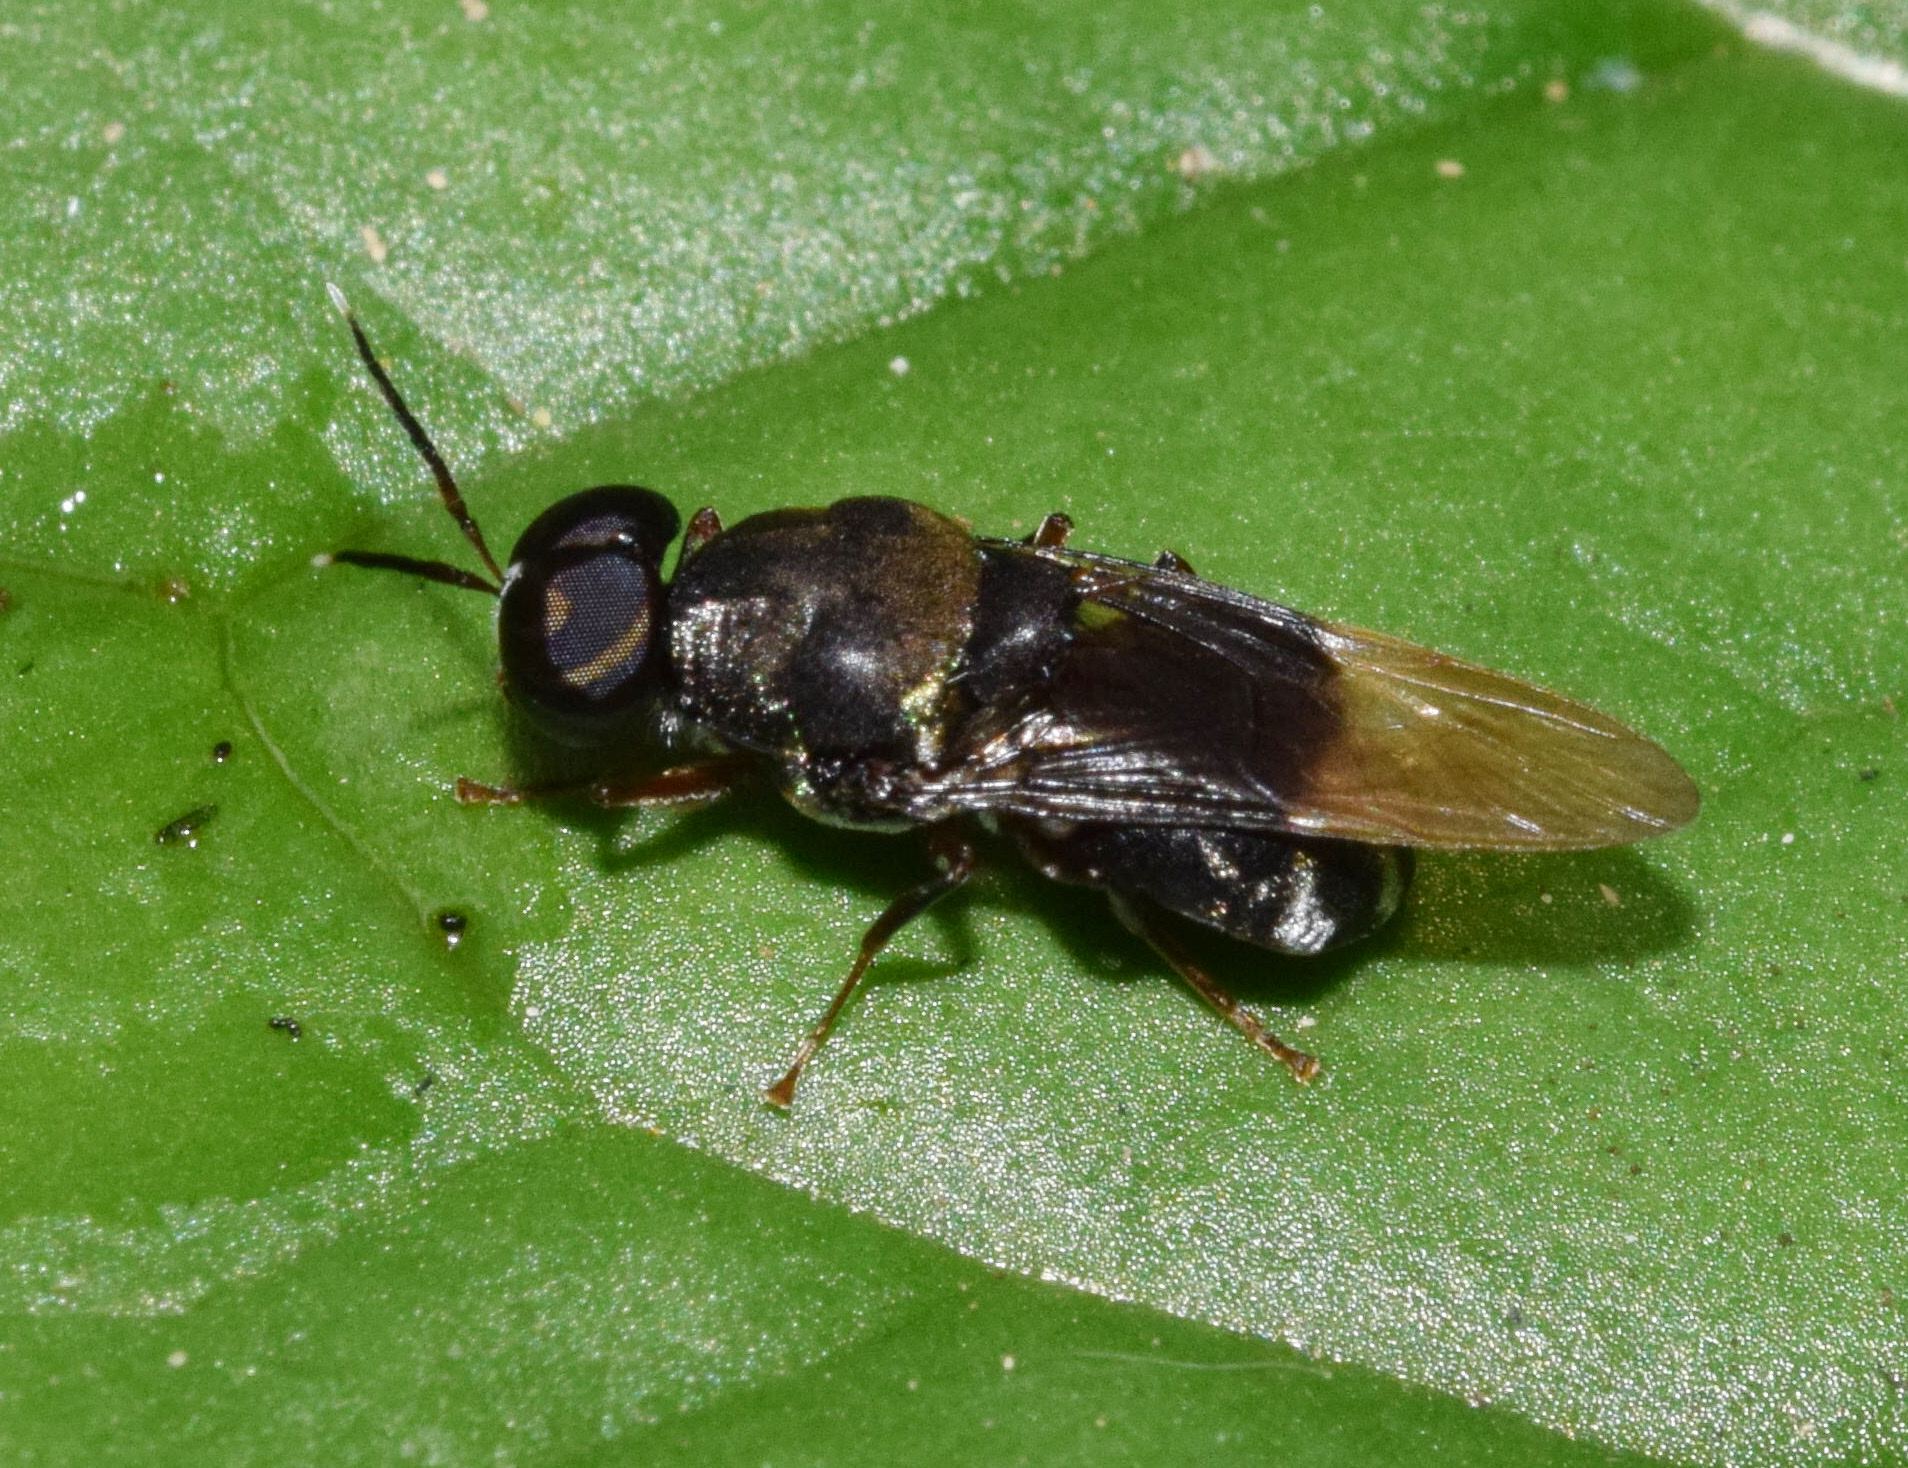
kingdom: Animalia
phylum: Arthropoda
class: Insecta
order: Diptera
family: Stratiomyidae
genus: Isomerocera
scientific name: Isomerocera quadrilineata
